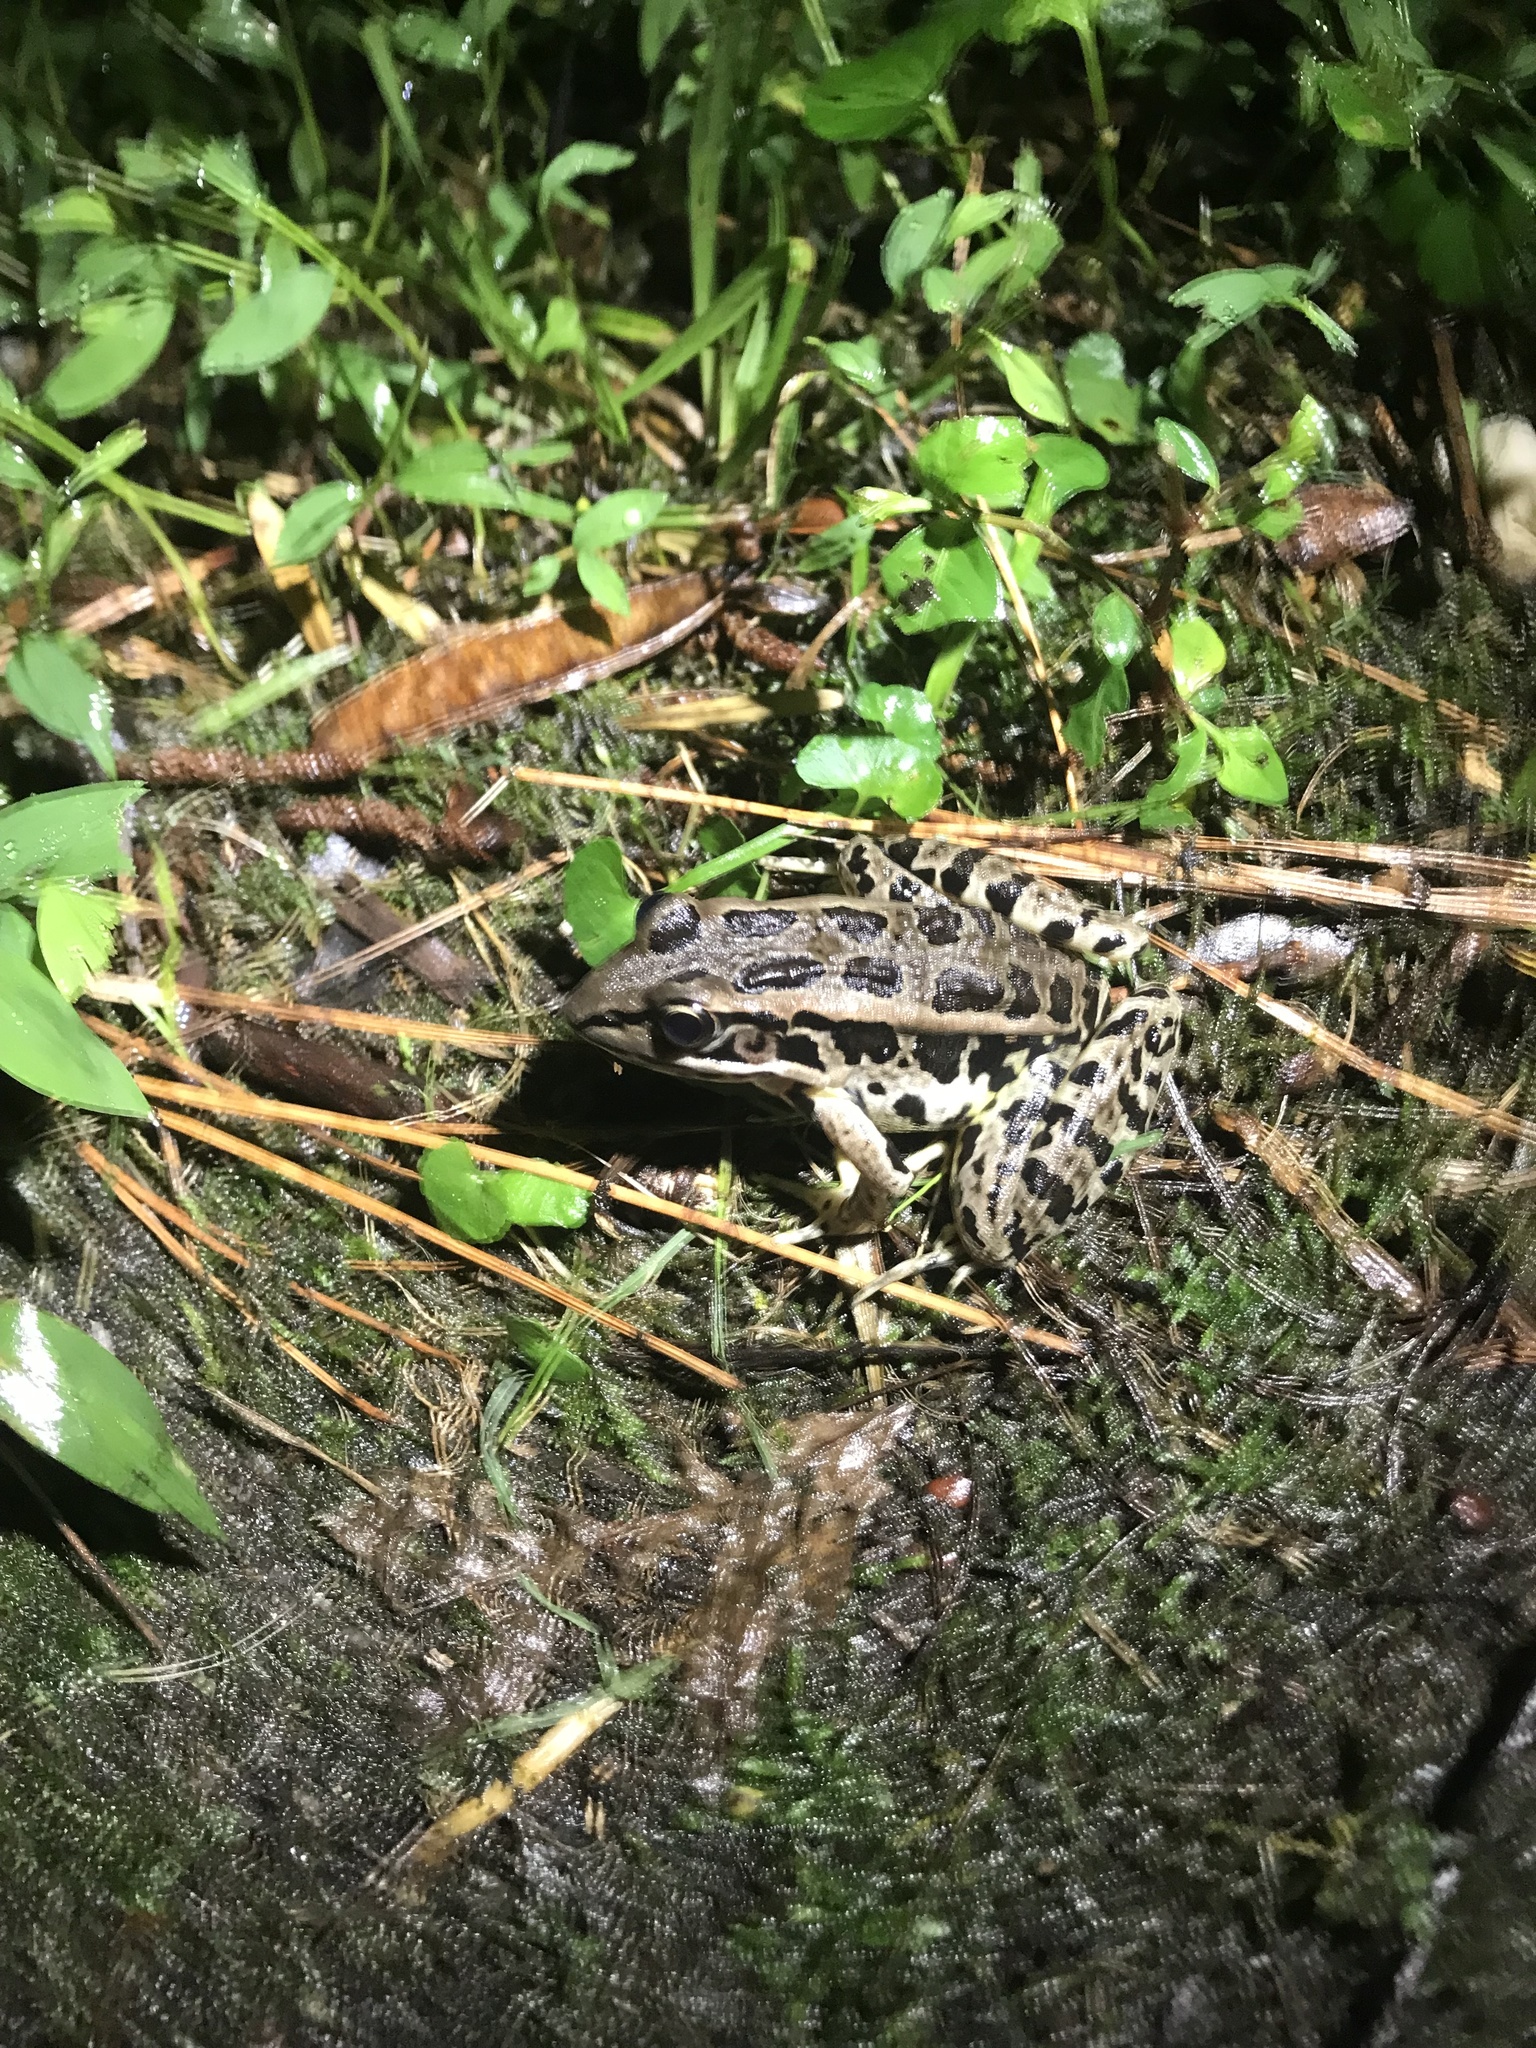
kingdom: Animalia
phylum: Chordata
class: Amphibia
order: Anura
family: Ranidae
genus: Lithobates
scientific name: Lithobates palustris
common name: Pickerel frog
